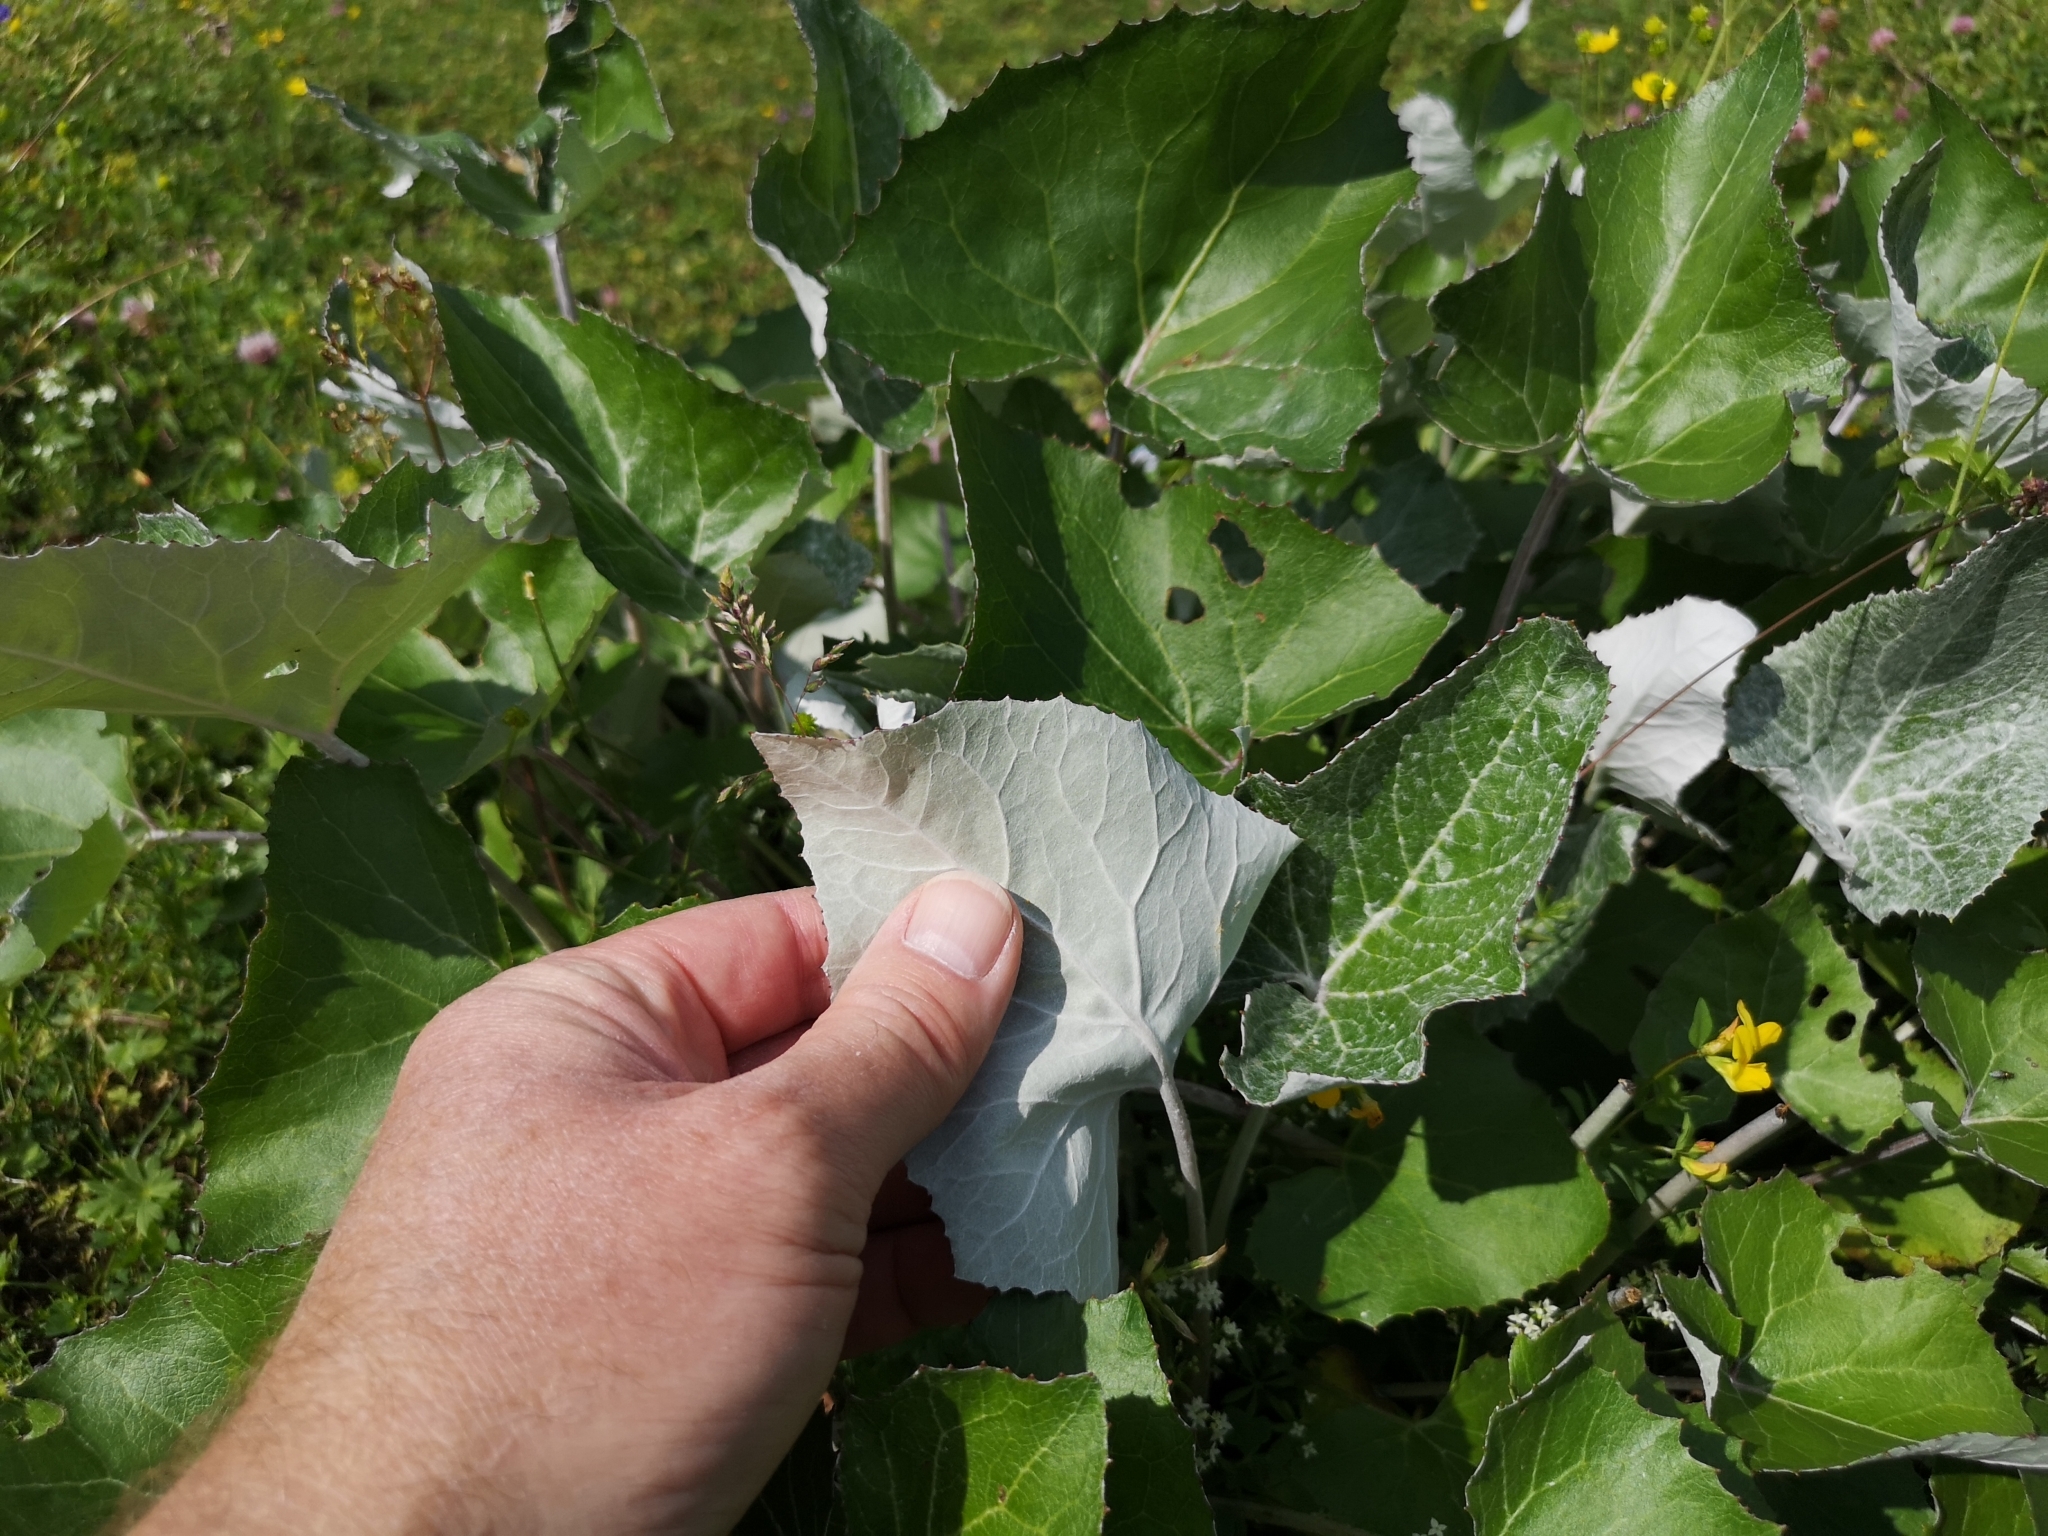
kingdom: Plantae
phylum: Tracheophyta
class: Magnoliopsida
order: Asterales
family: Asteraceae
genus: Petasites
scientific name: Petasites paradoxus
